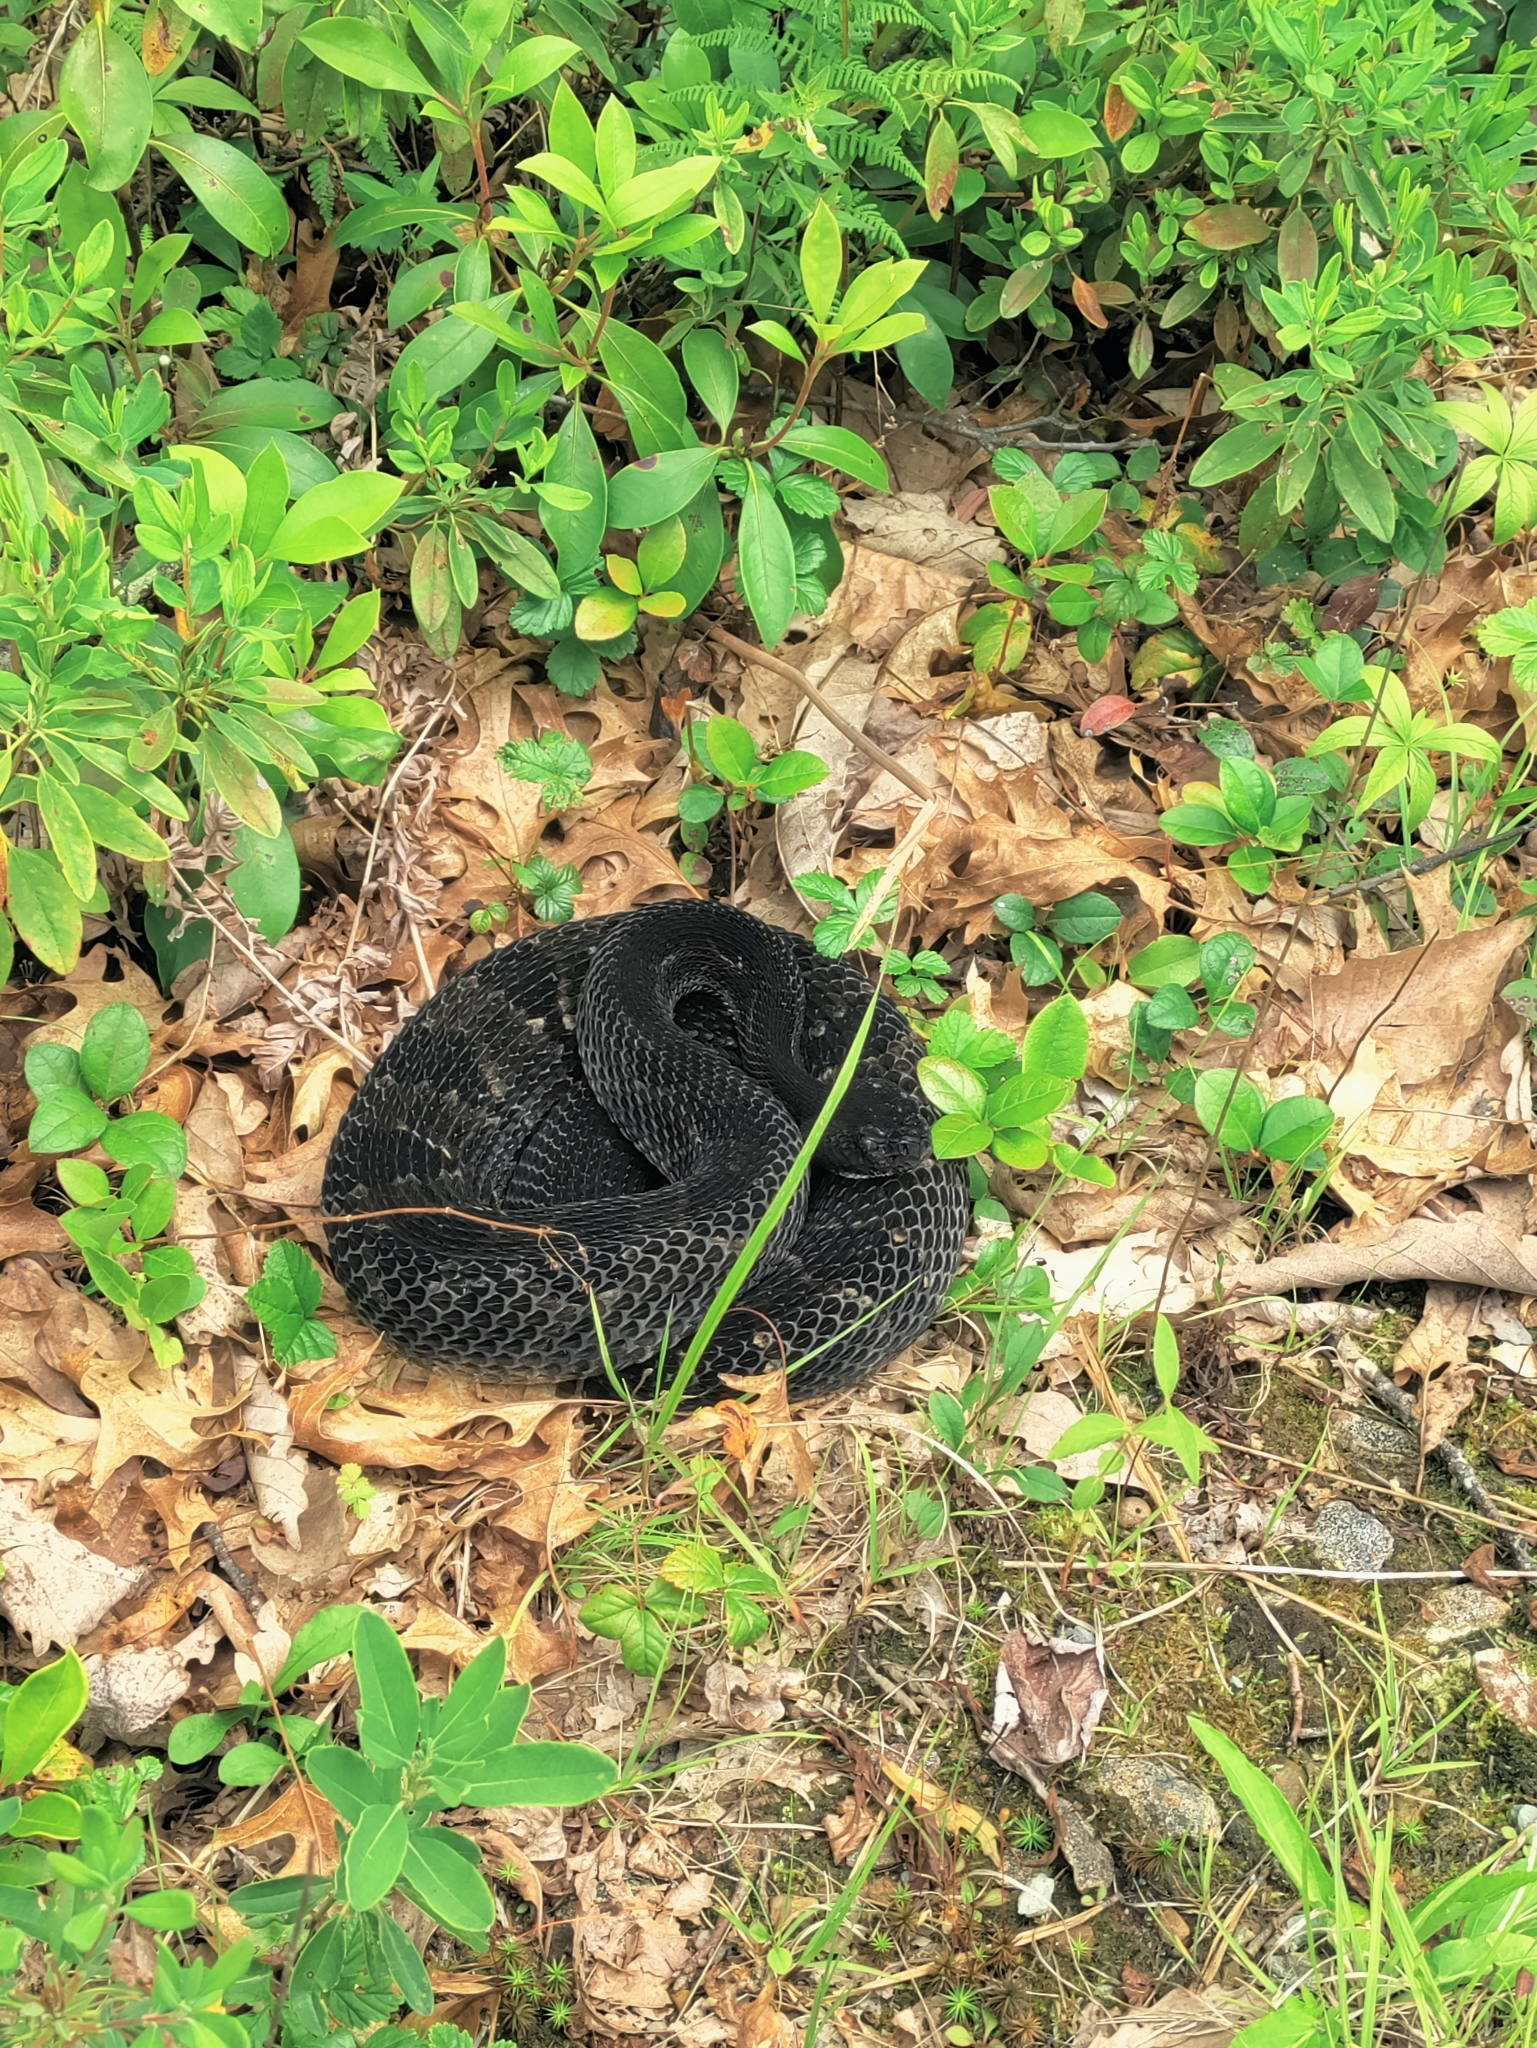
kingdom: Animalia
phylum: Chordata
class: Squamata
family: Viperidae
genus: Crotalus
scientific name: Crotalus horridus
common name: Timber rattlesnake
